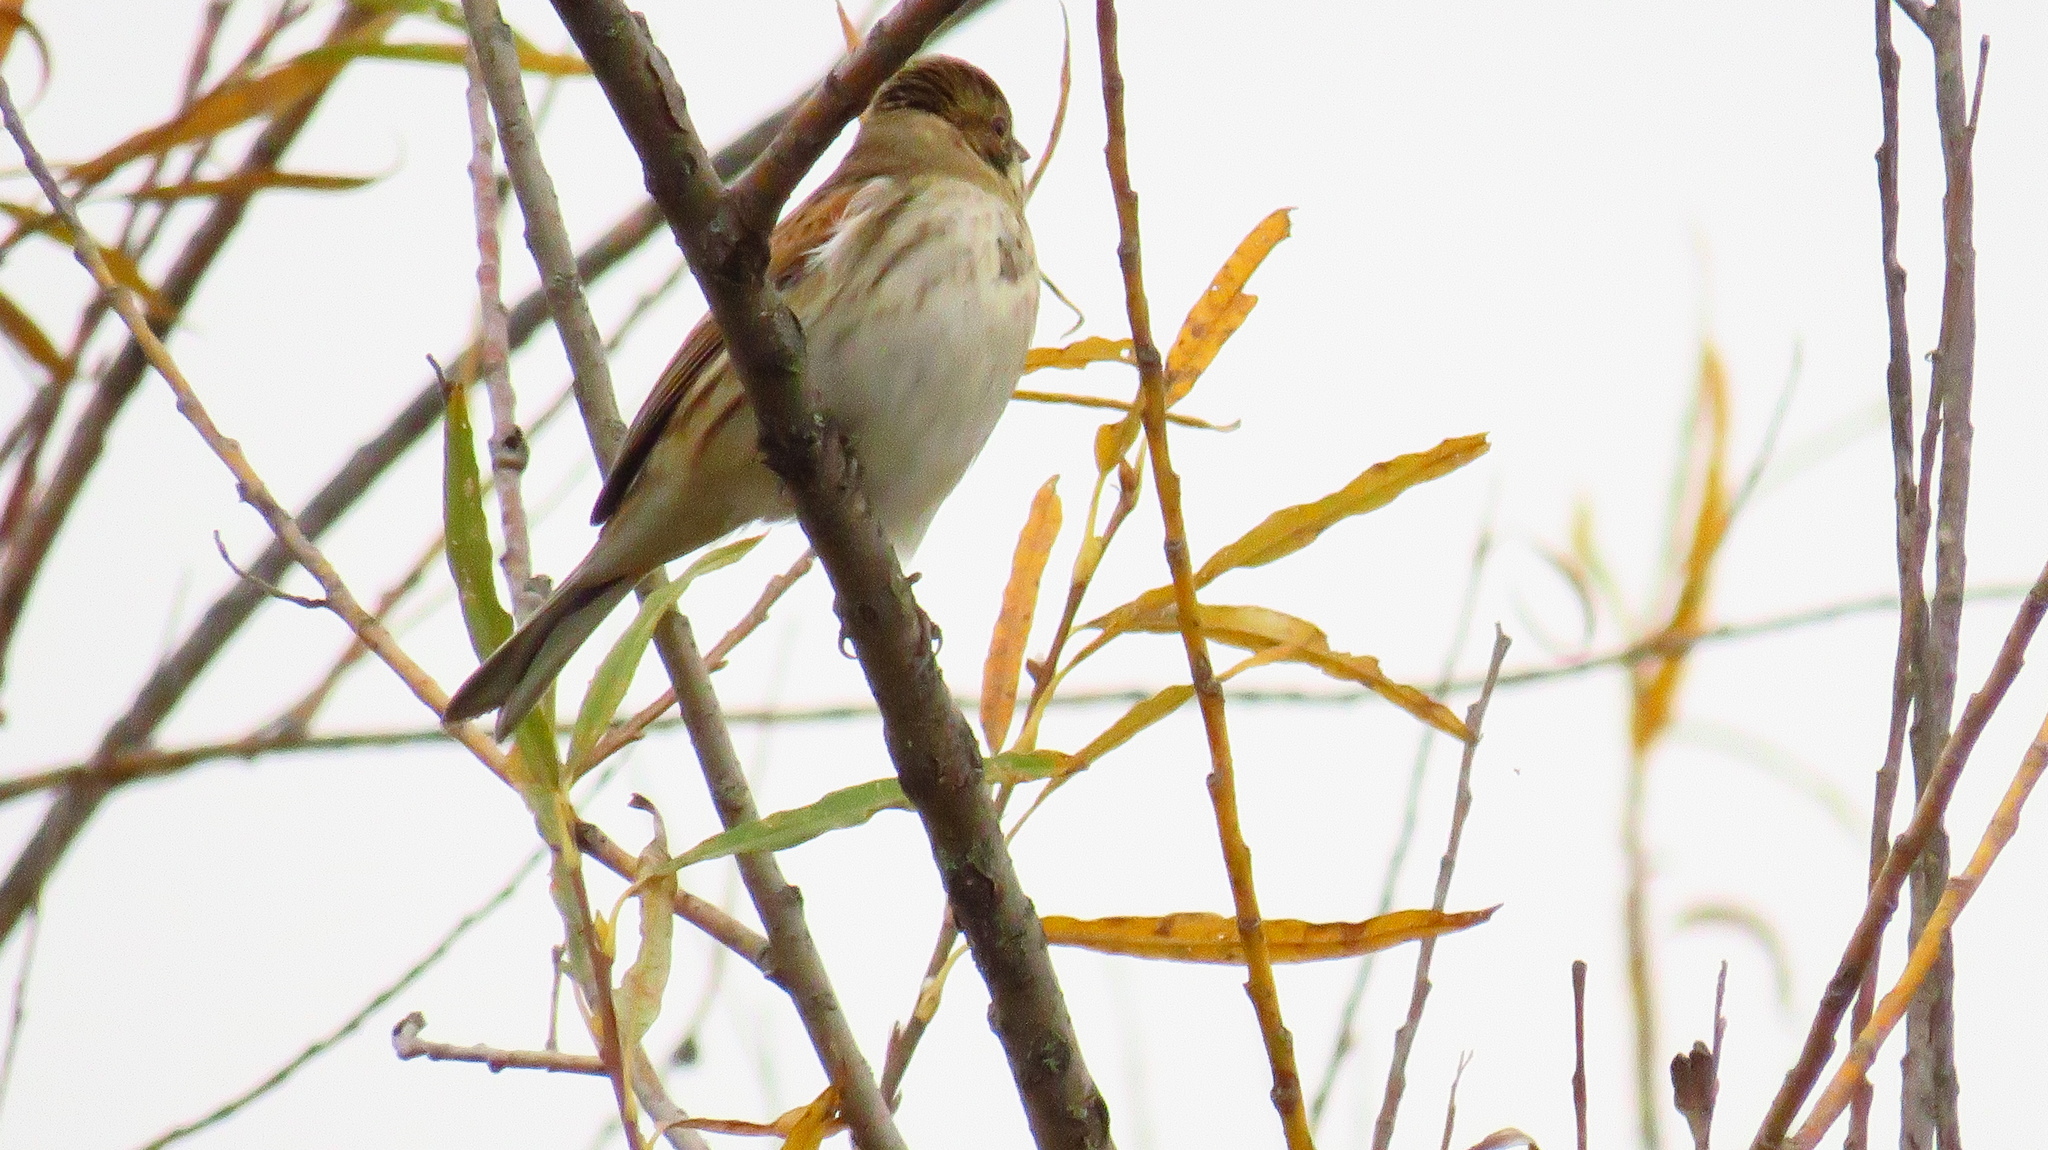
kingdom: Animalia
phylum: Chordata
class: Aves
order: Passeriformes
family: Emberizidae
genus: Emberiza
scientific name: Emberiza schoeniclus
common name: Reed bunting
